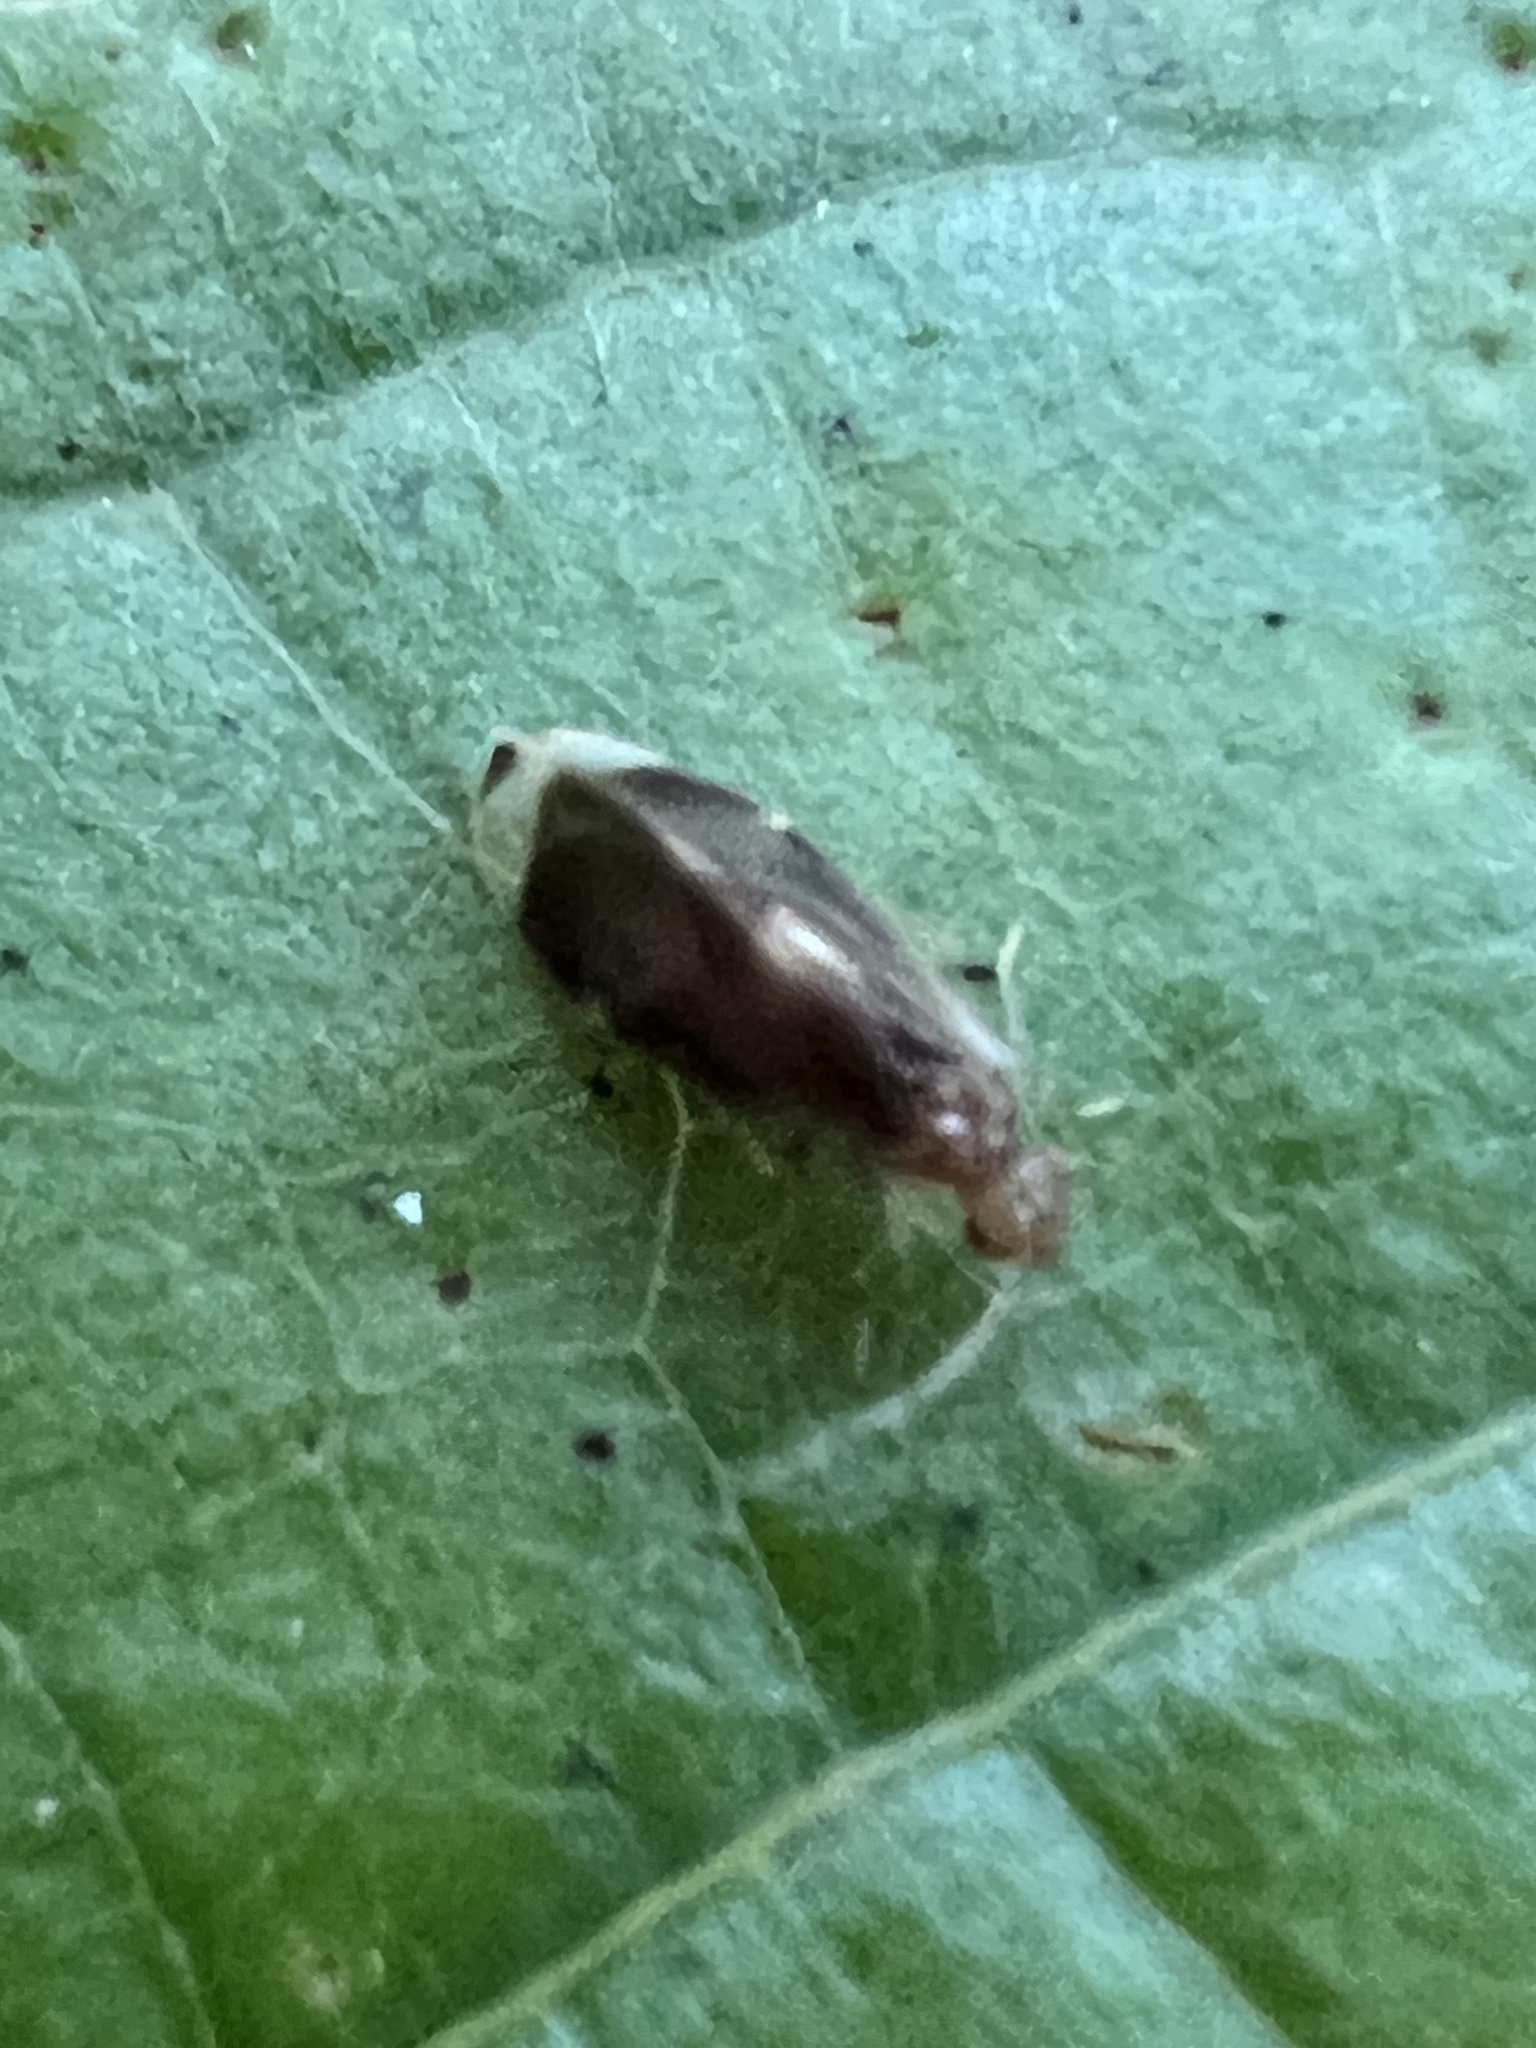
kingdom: Animalia
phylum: Arthropoda
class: Insecta
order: Psocodea
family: Amphipsocidae
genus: Polypsocus
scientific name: Polypsocus corruptus
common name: Corrupt barklouse
